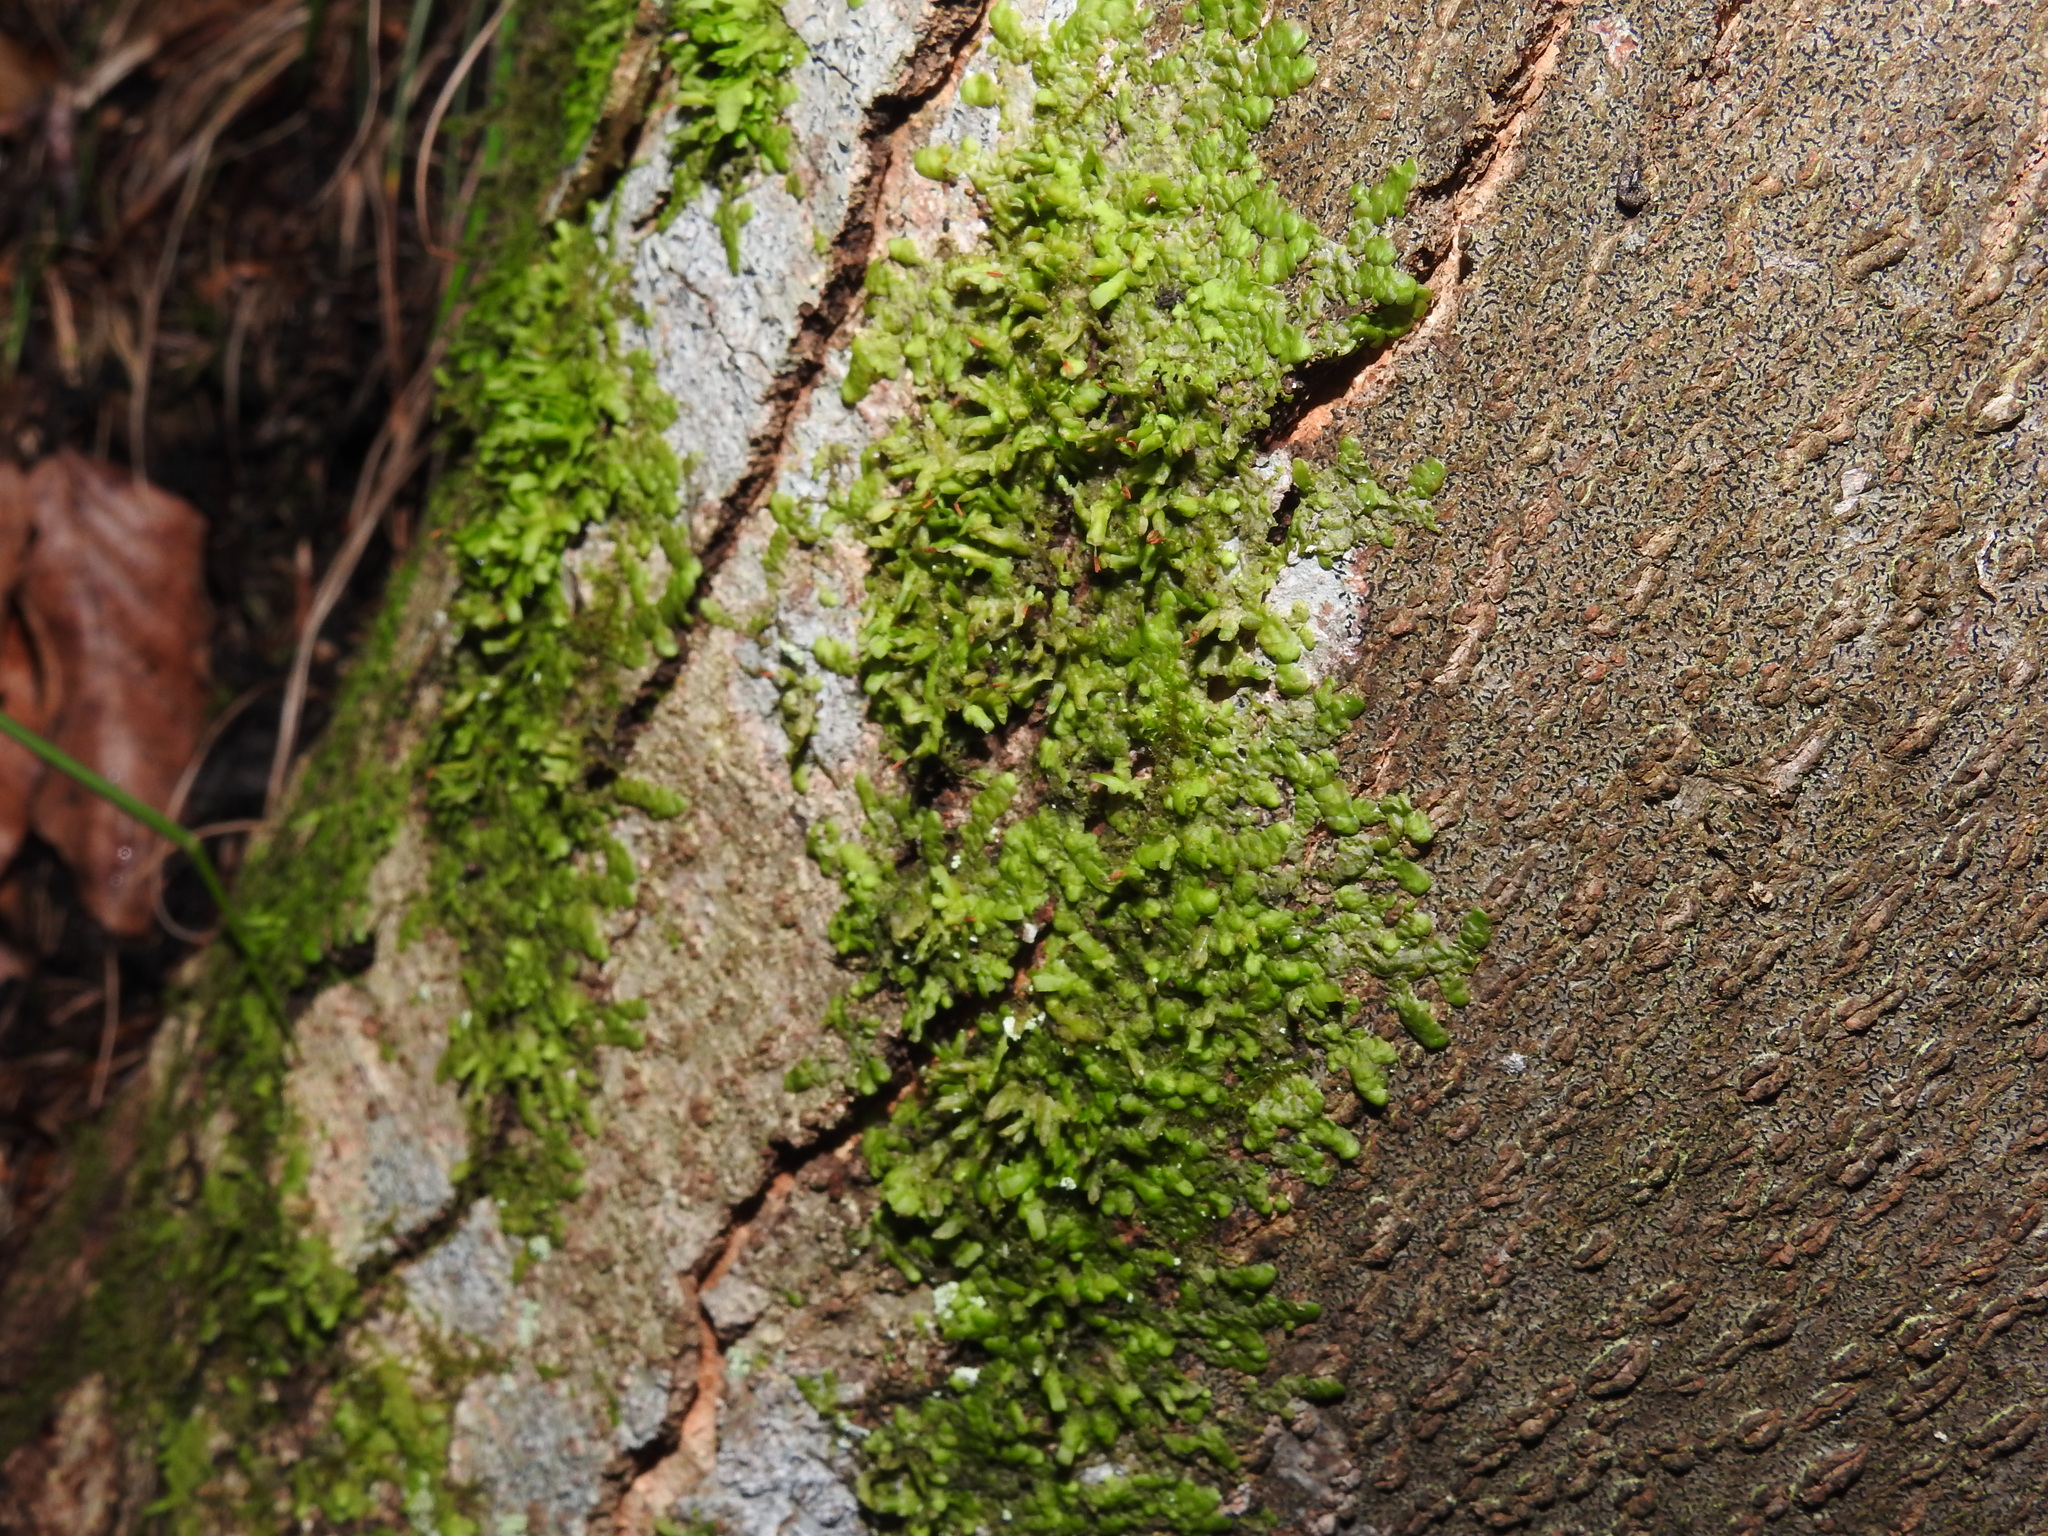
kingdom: Plantae
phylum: Marchantiophyta
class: Jungermanniopsida
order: Porellales
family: Radulaceae
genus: Radula
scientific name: Radula complanata
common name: Flat-leaved scalewort
